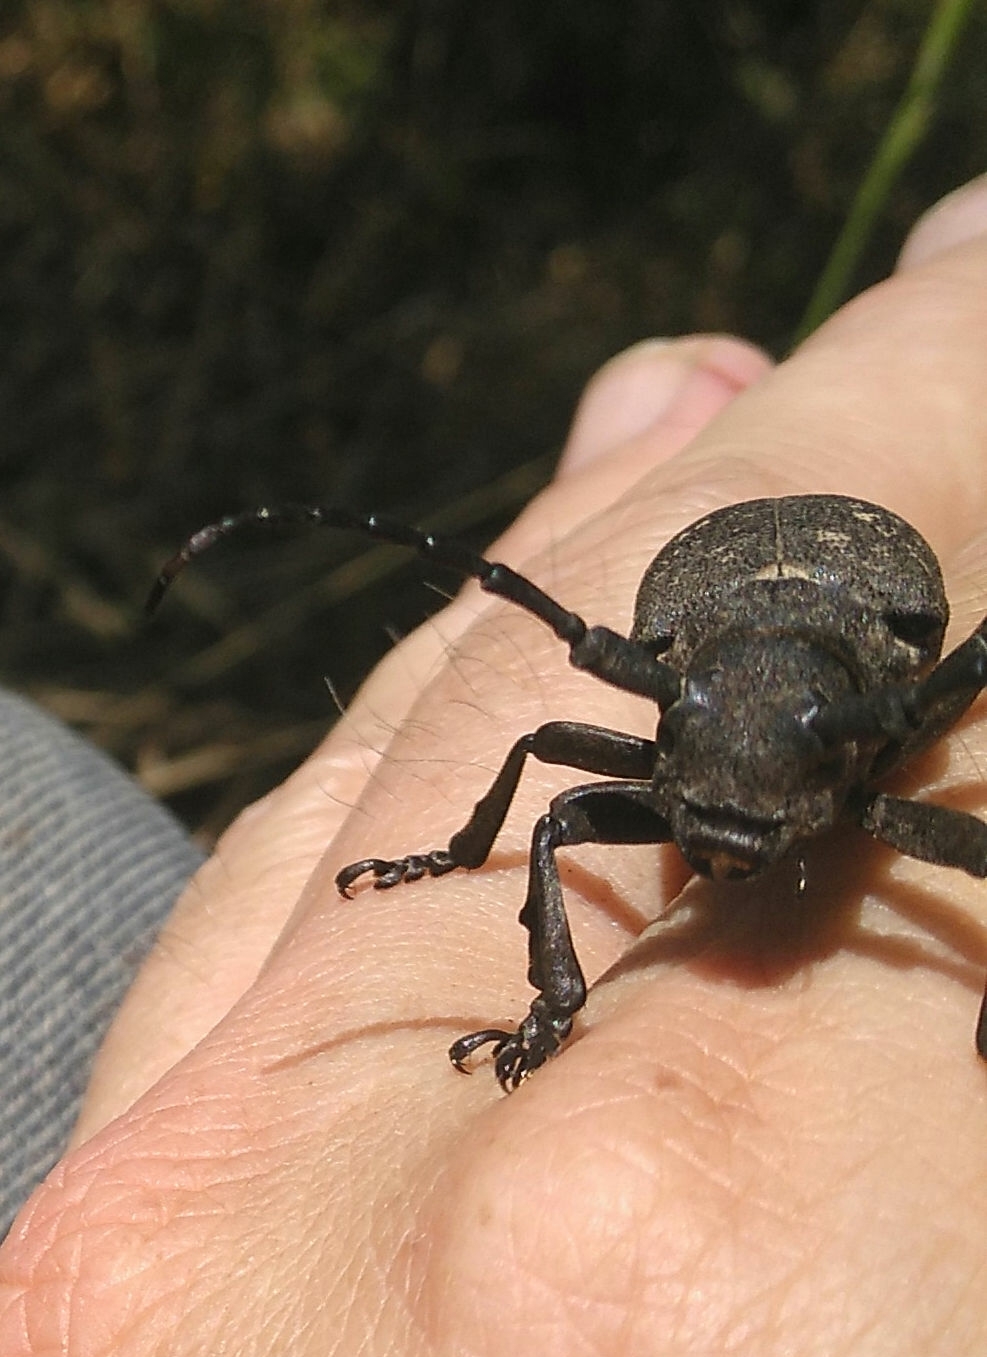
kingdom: Animalia
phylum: Arthropoda
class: Insecta
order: Coleoptera
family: Cerambycidae
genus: Lamia
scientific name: Lamia textor
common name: Weaver beetle
